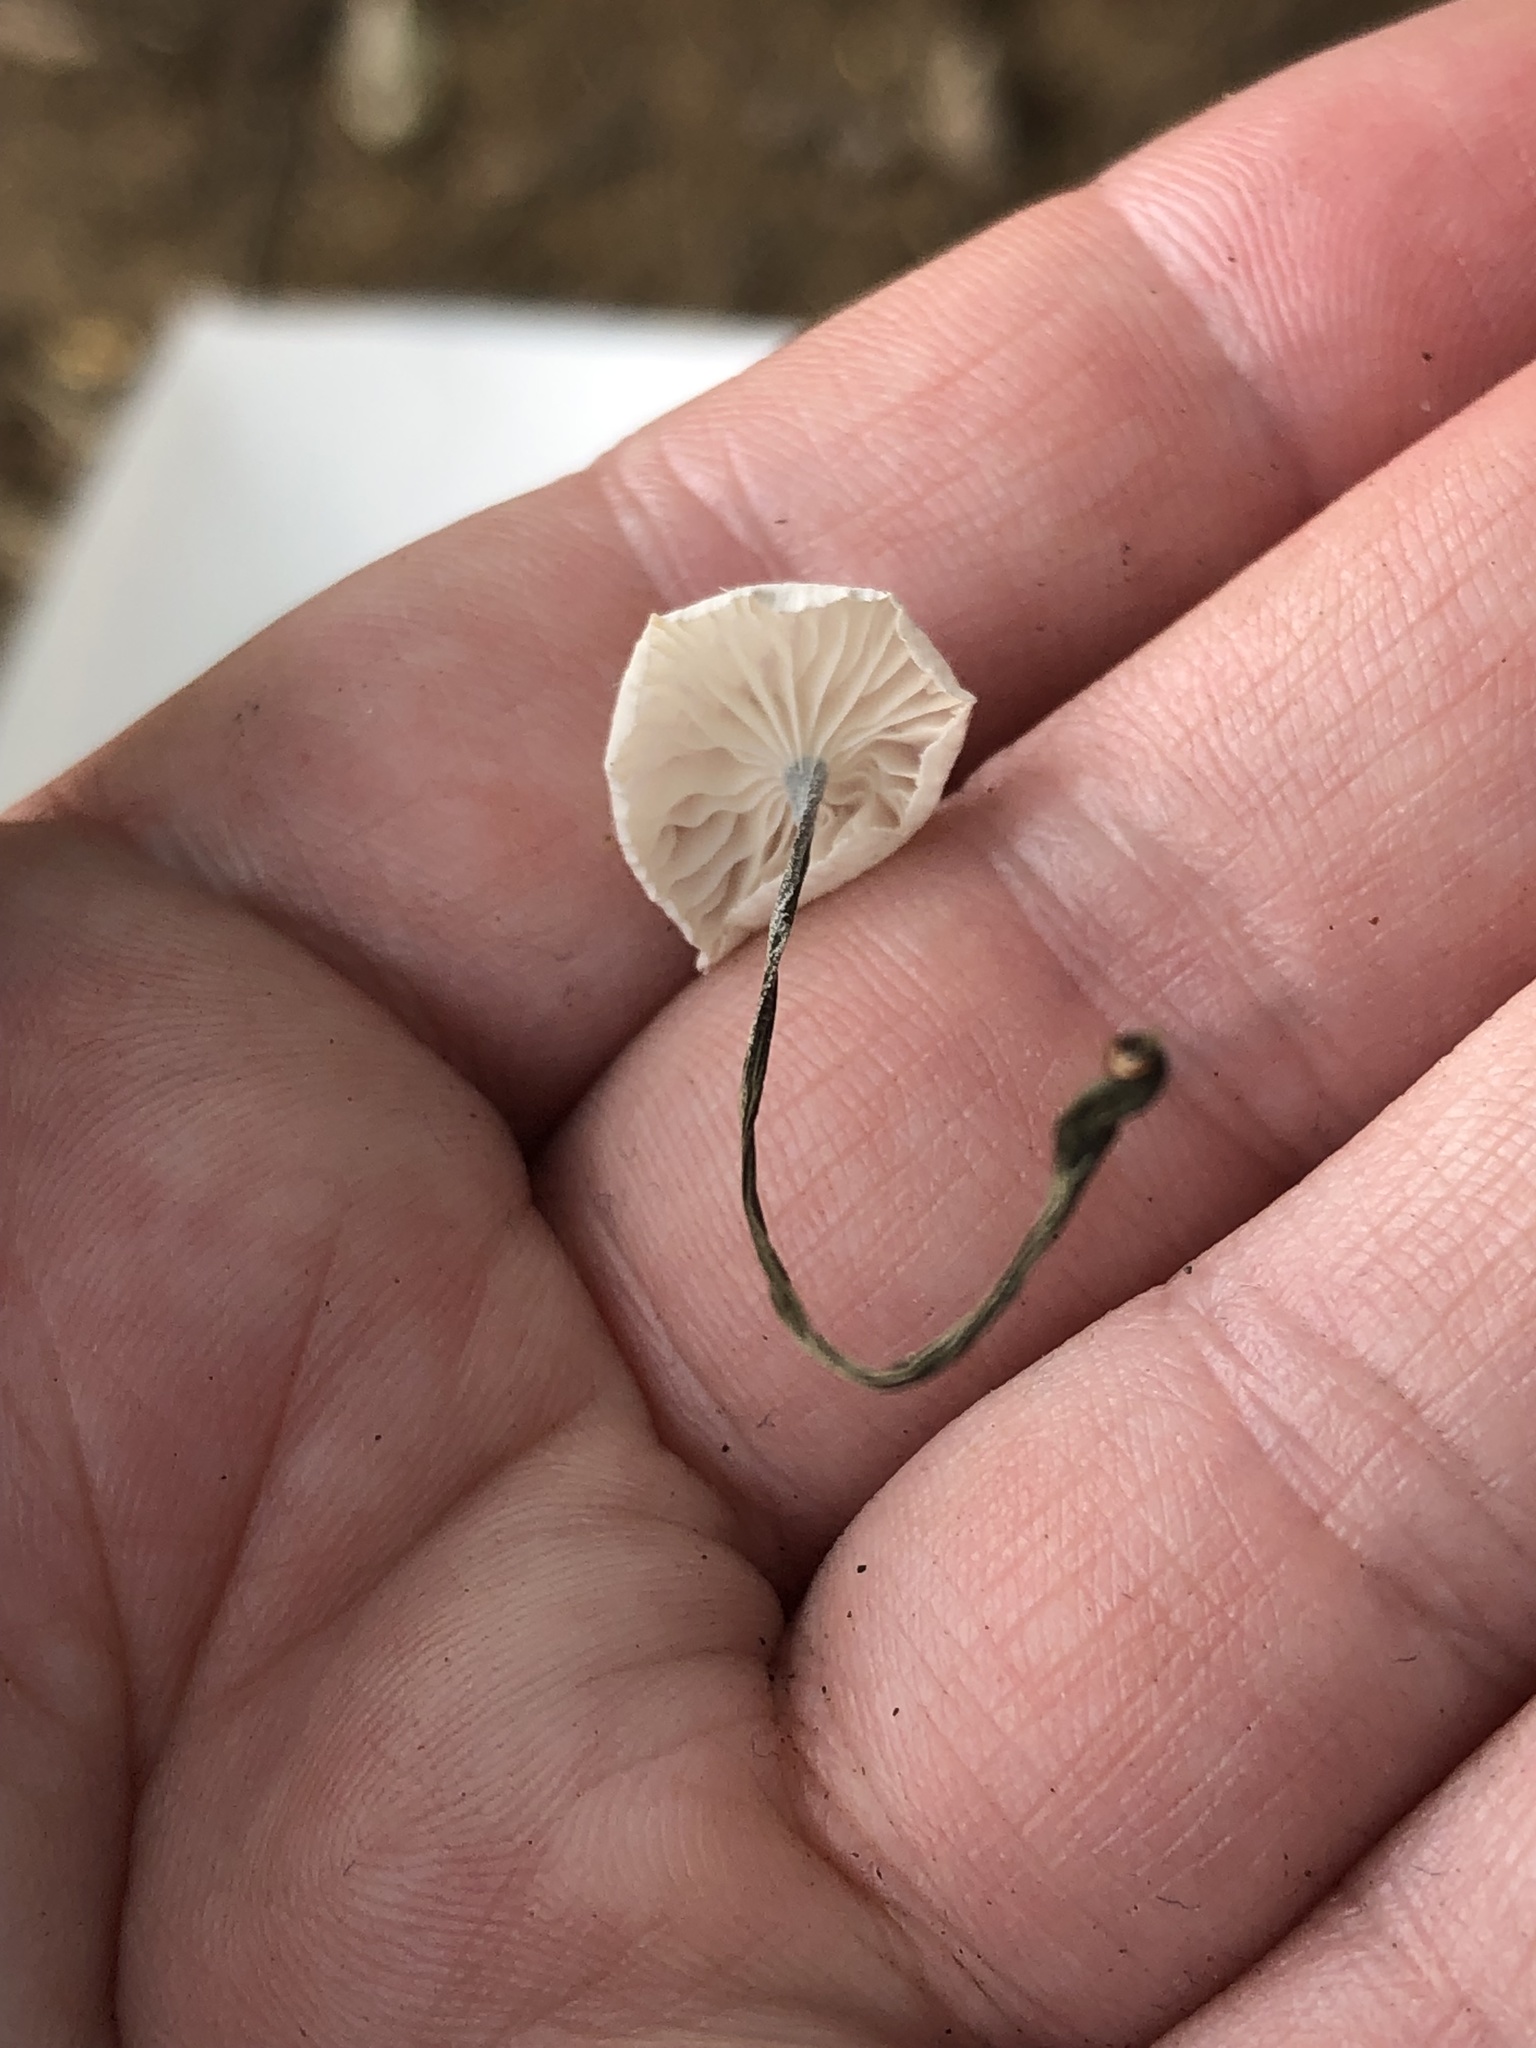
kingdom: Fungi
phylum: Basidiomycota
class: Agaricomycetes
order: Agaricales
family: Marasmiaceae
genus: Marasmius
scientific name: Marasmius rotula
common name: Collared parachute
